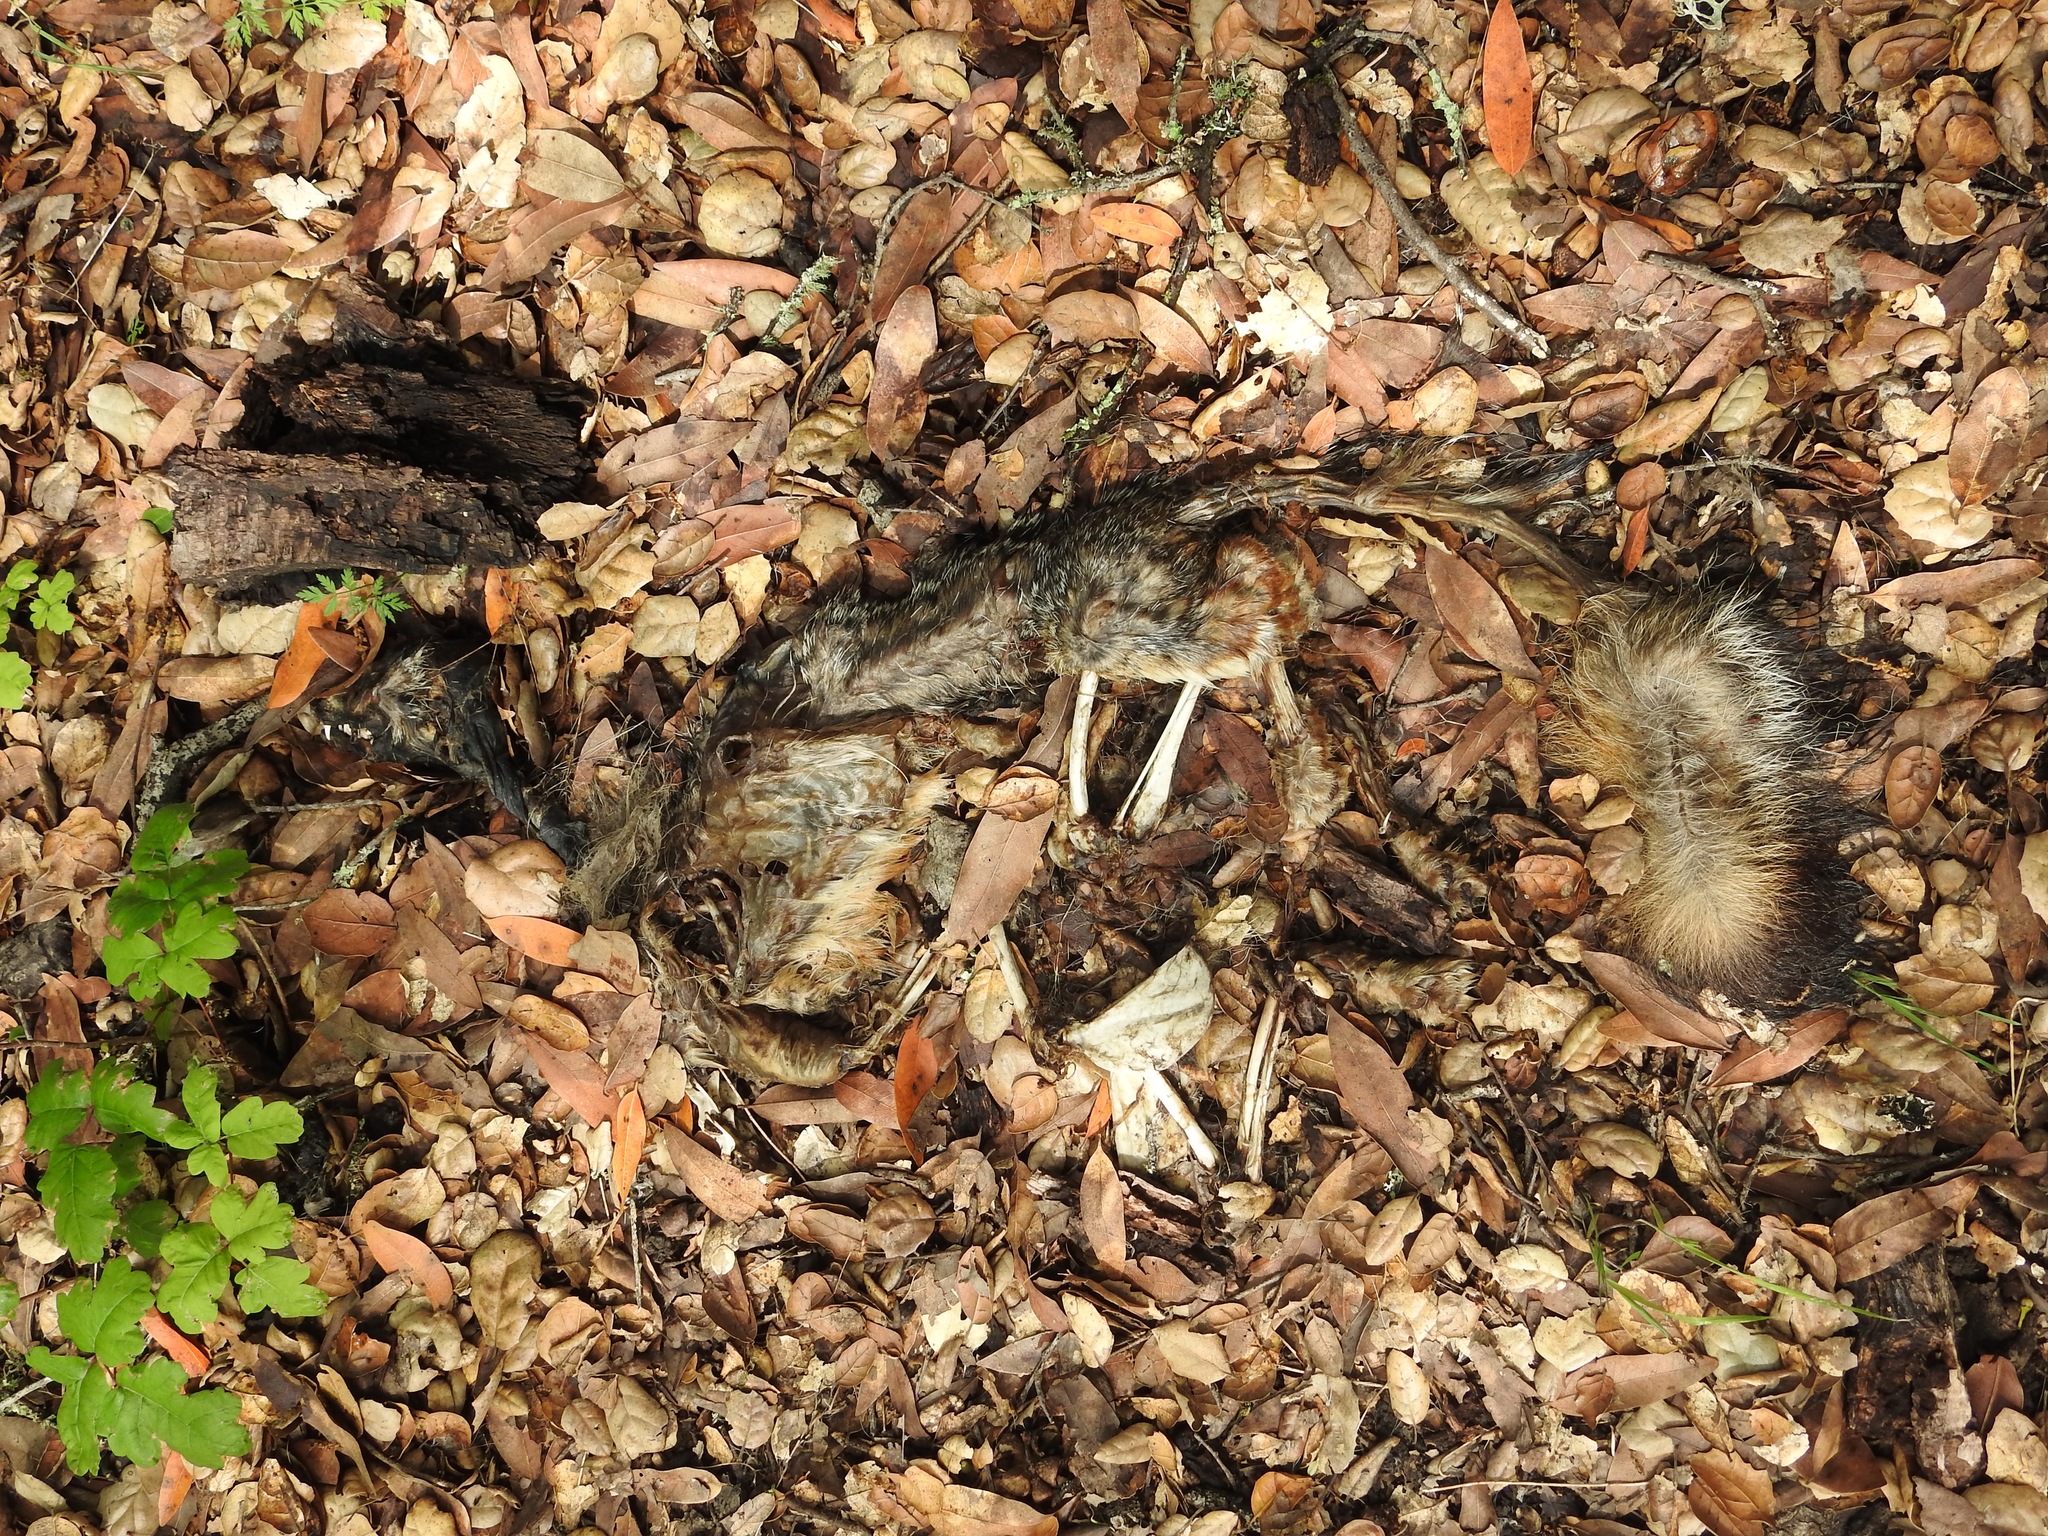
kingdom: Animalia
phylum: Chordata
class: Mammalia
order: Carnivora
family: Canidae
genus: Urocyon
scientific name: Urocyon cinereoargenteus
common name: Gray fox
